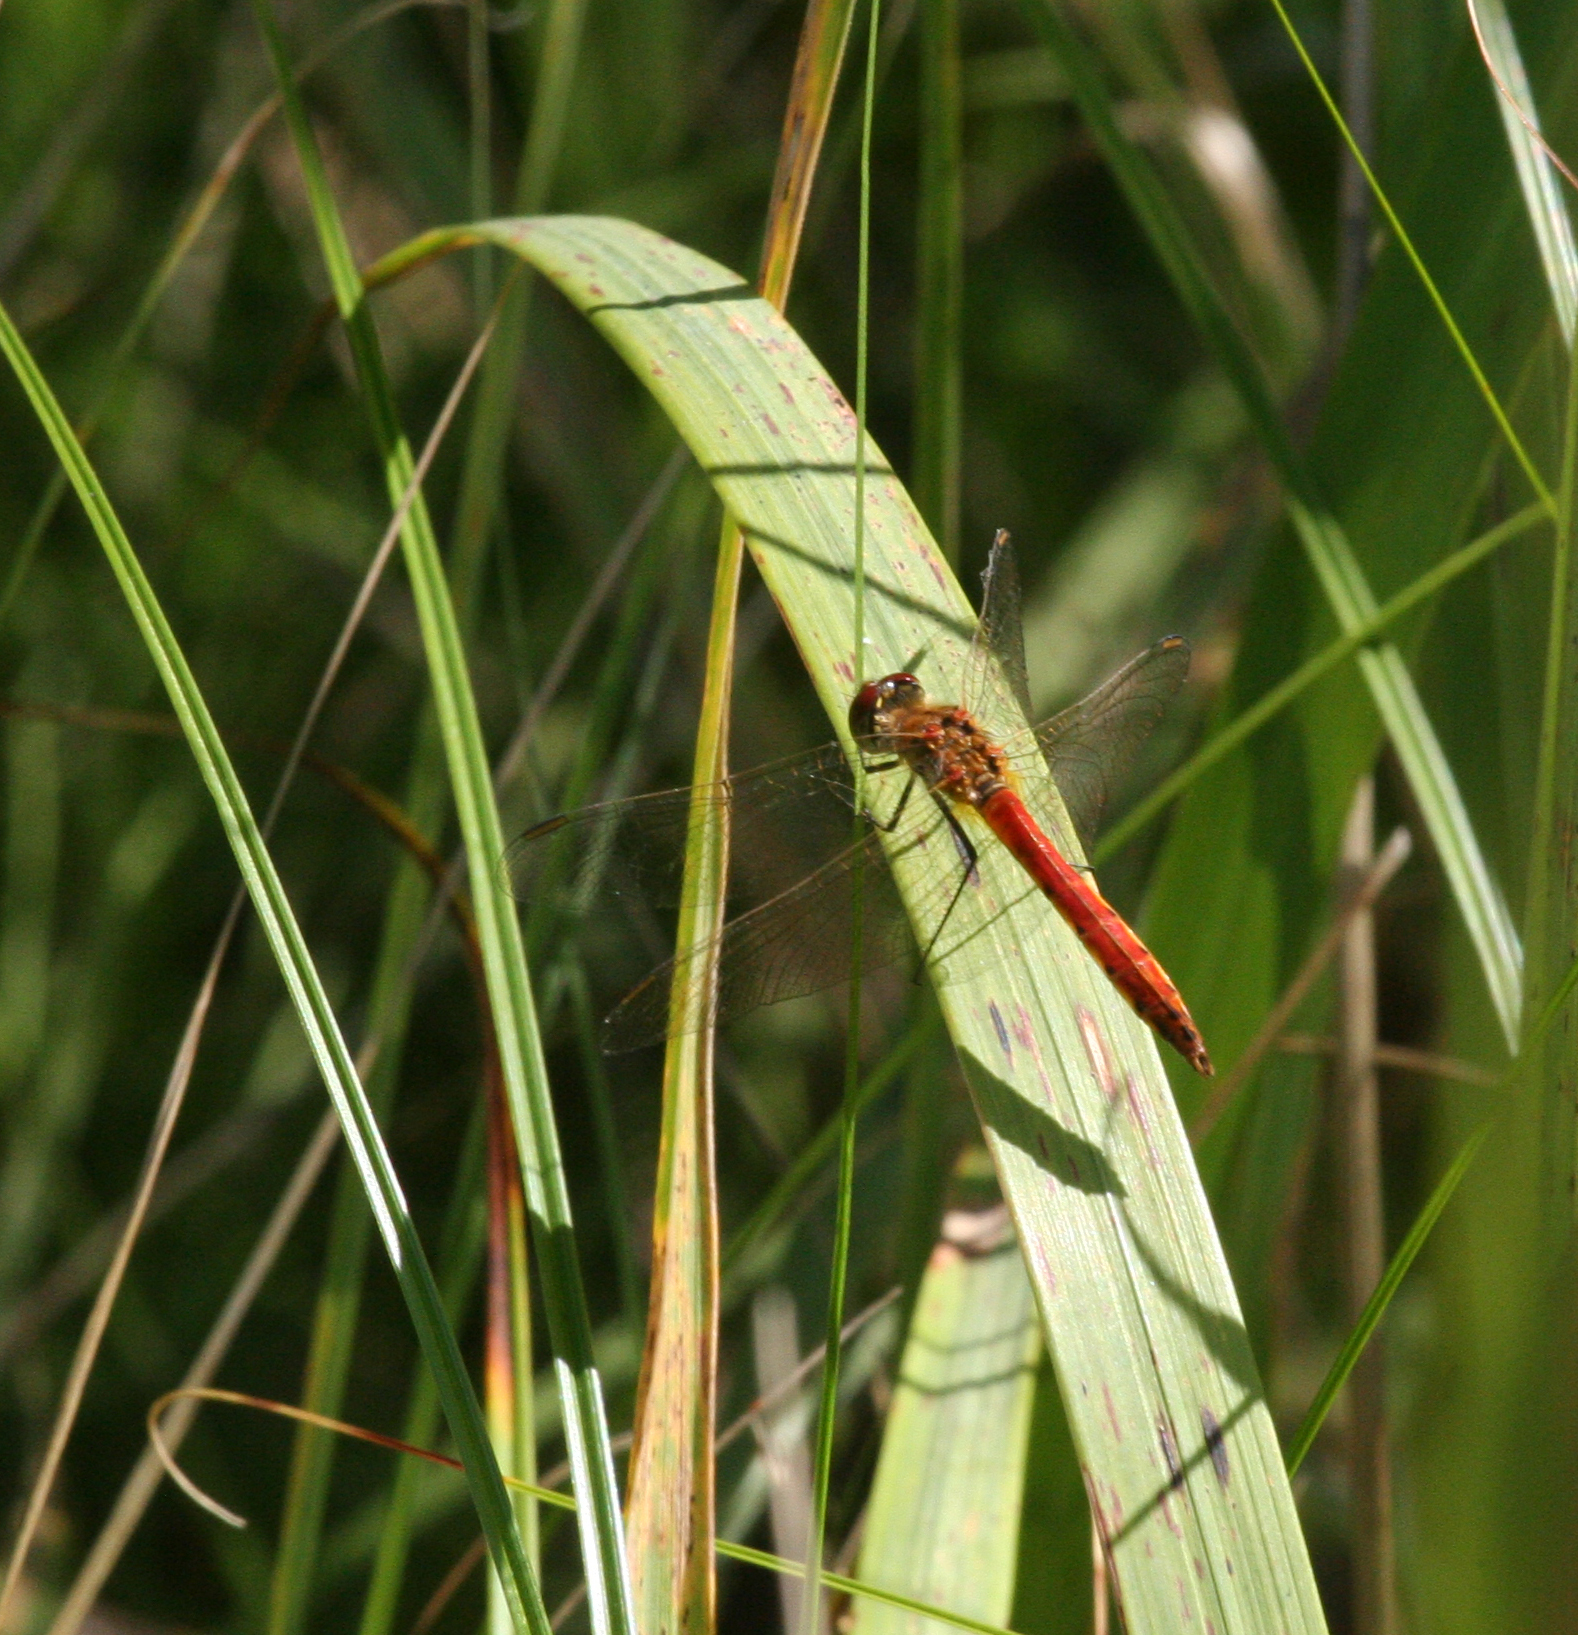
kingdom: Animalia
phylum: Arthropoda
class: Insecta
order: Odonata
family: Libellulidae
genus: Sympetrum
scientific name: Sympetrum depressiusculum
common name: Spotted darter
